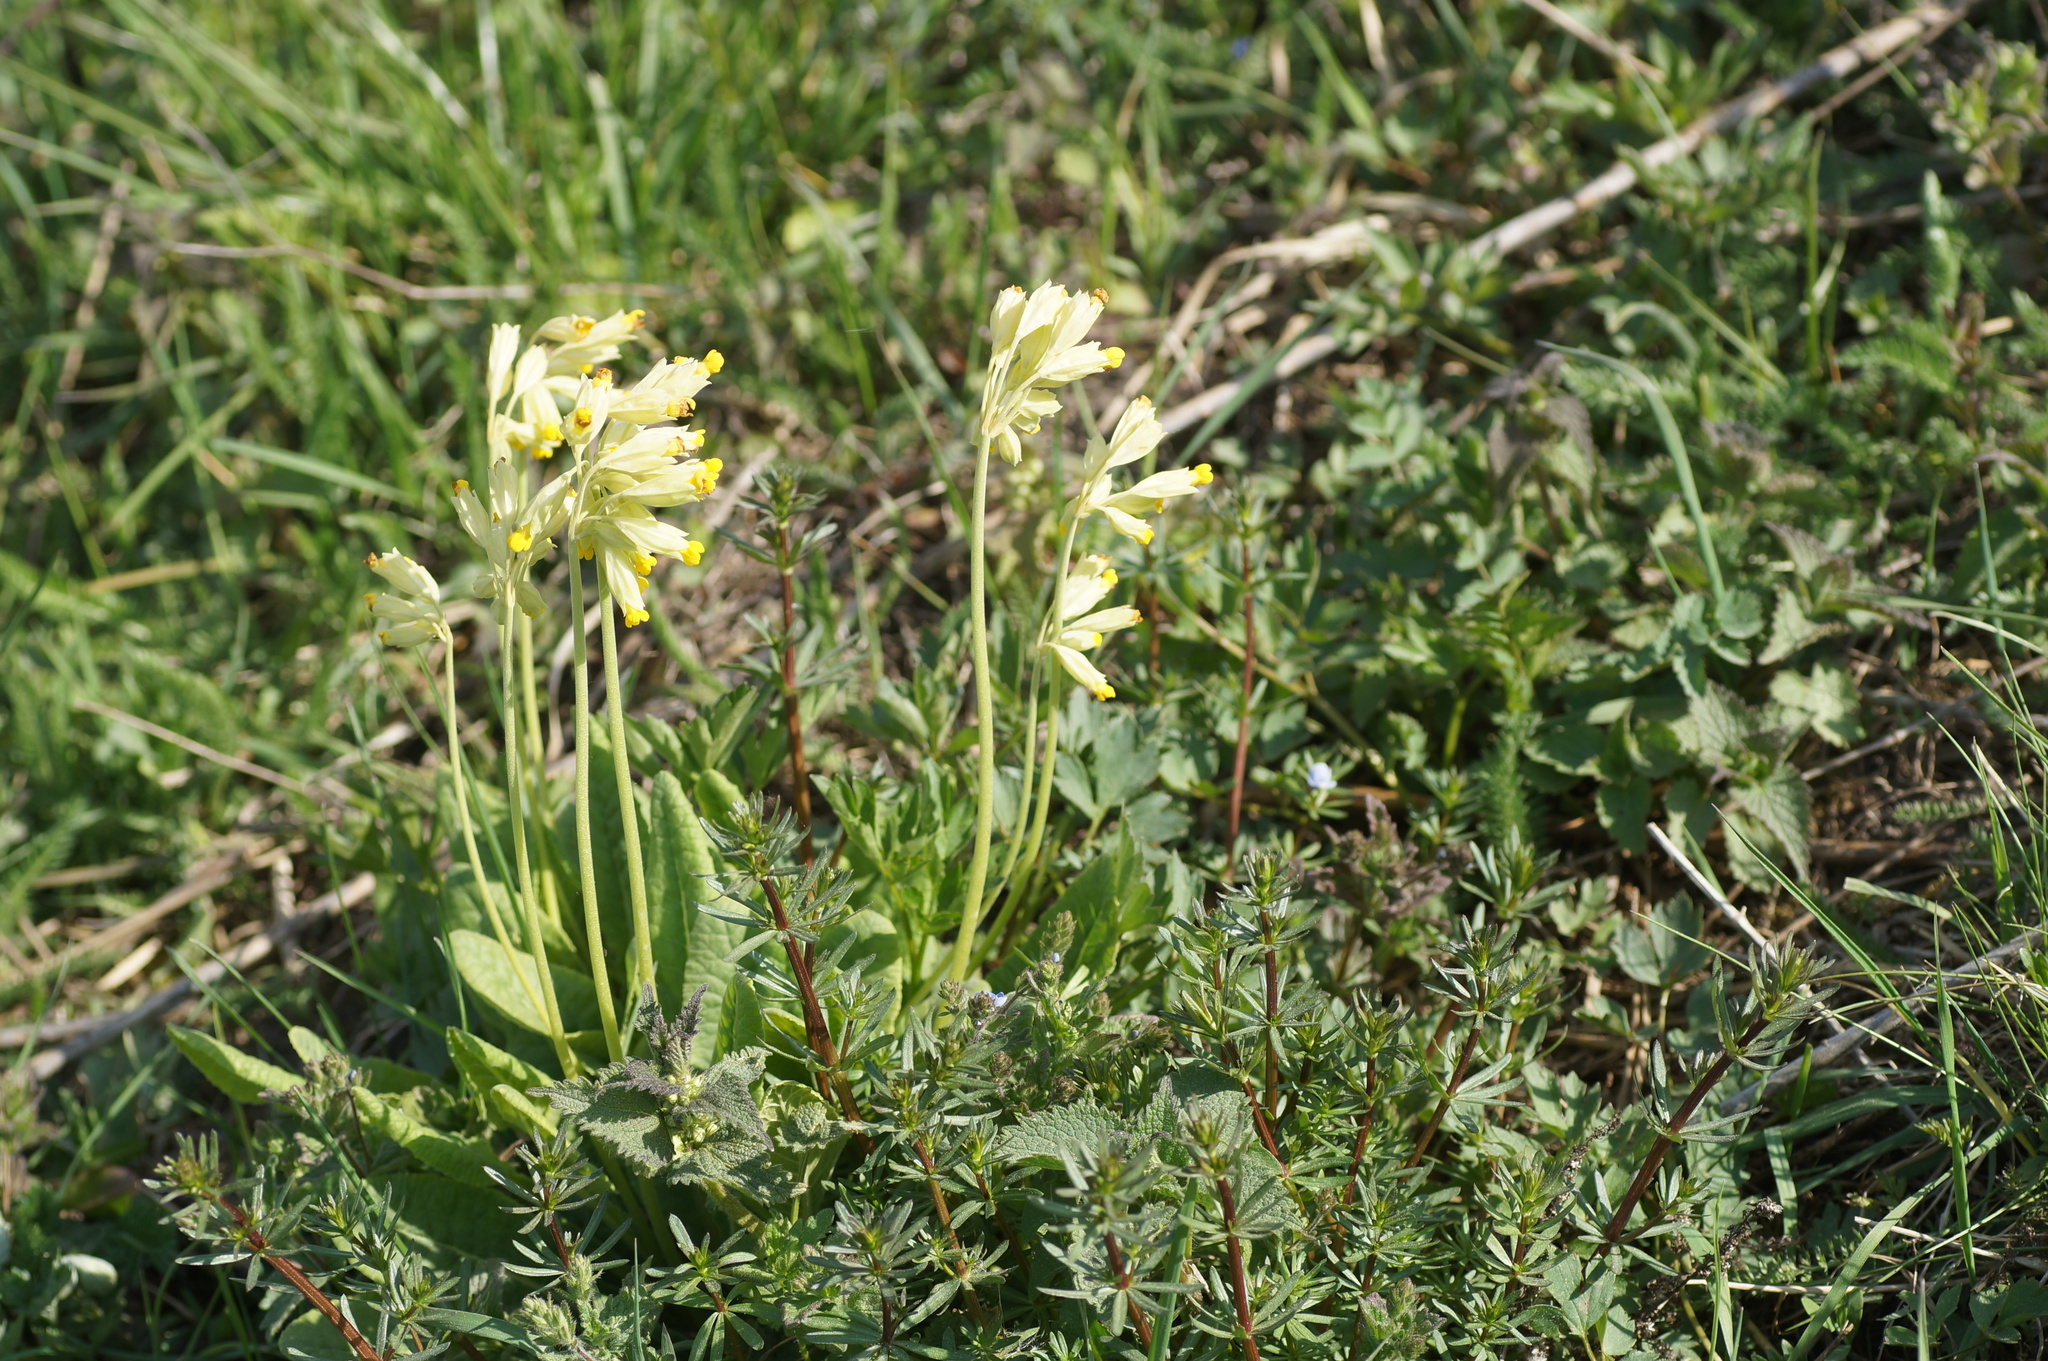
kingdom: Plantae
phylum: Tracheophyta
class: Magnoliopsida
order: Ericales
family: Primulaceae
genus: Primula
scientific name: Primula veris
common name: Cowslip
